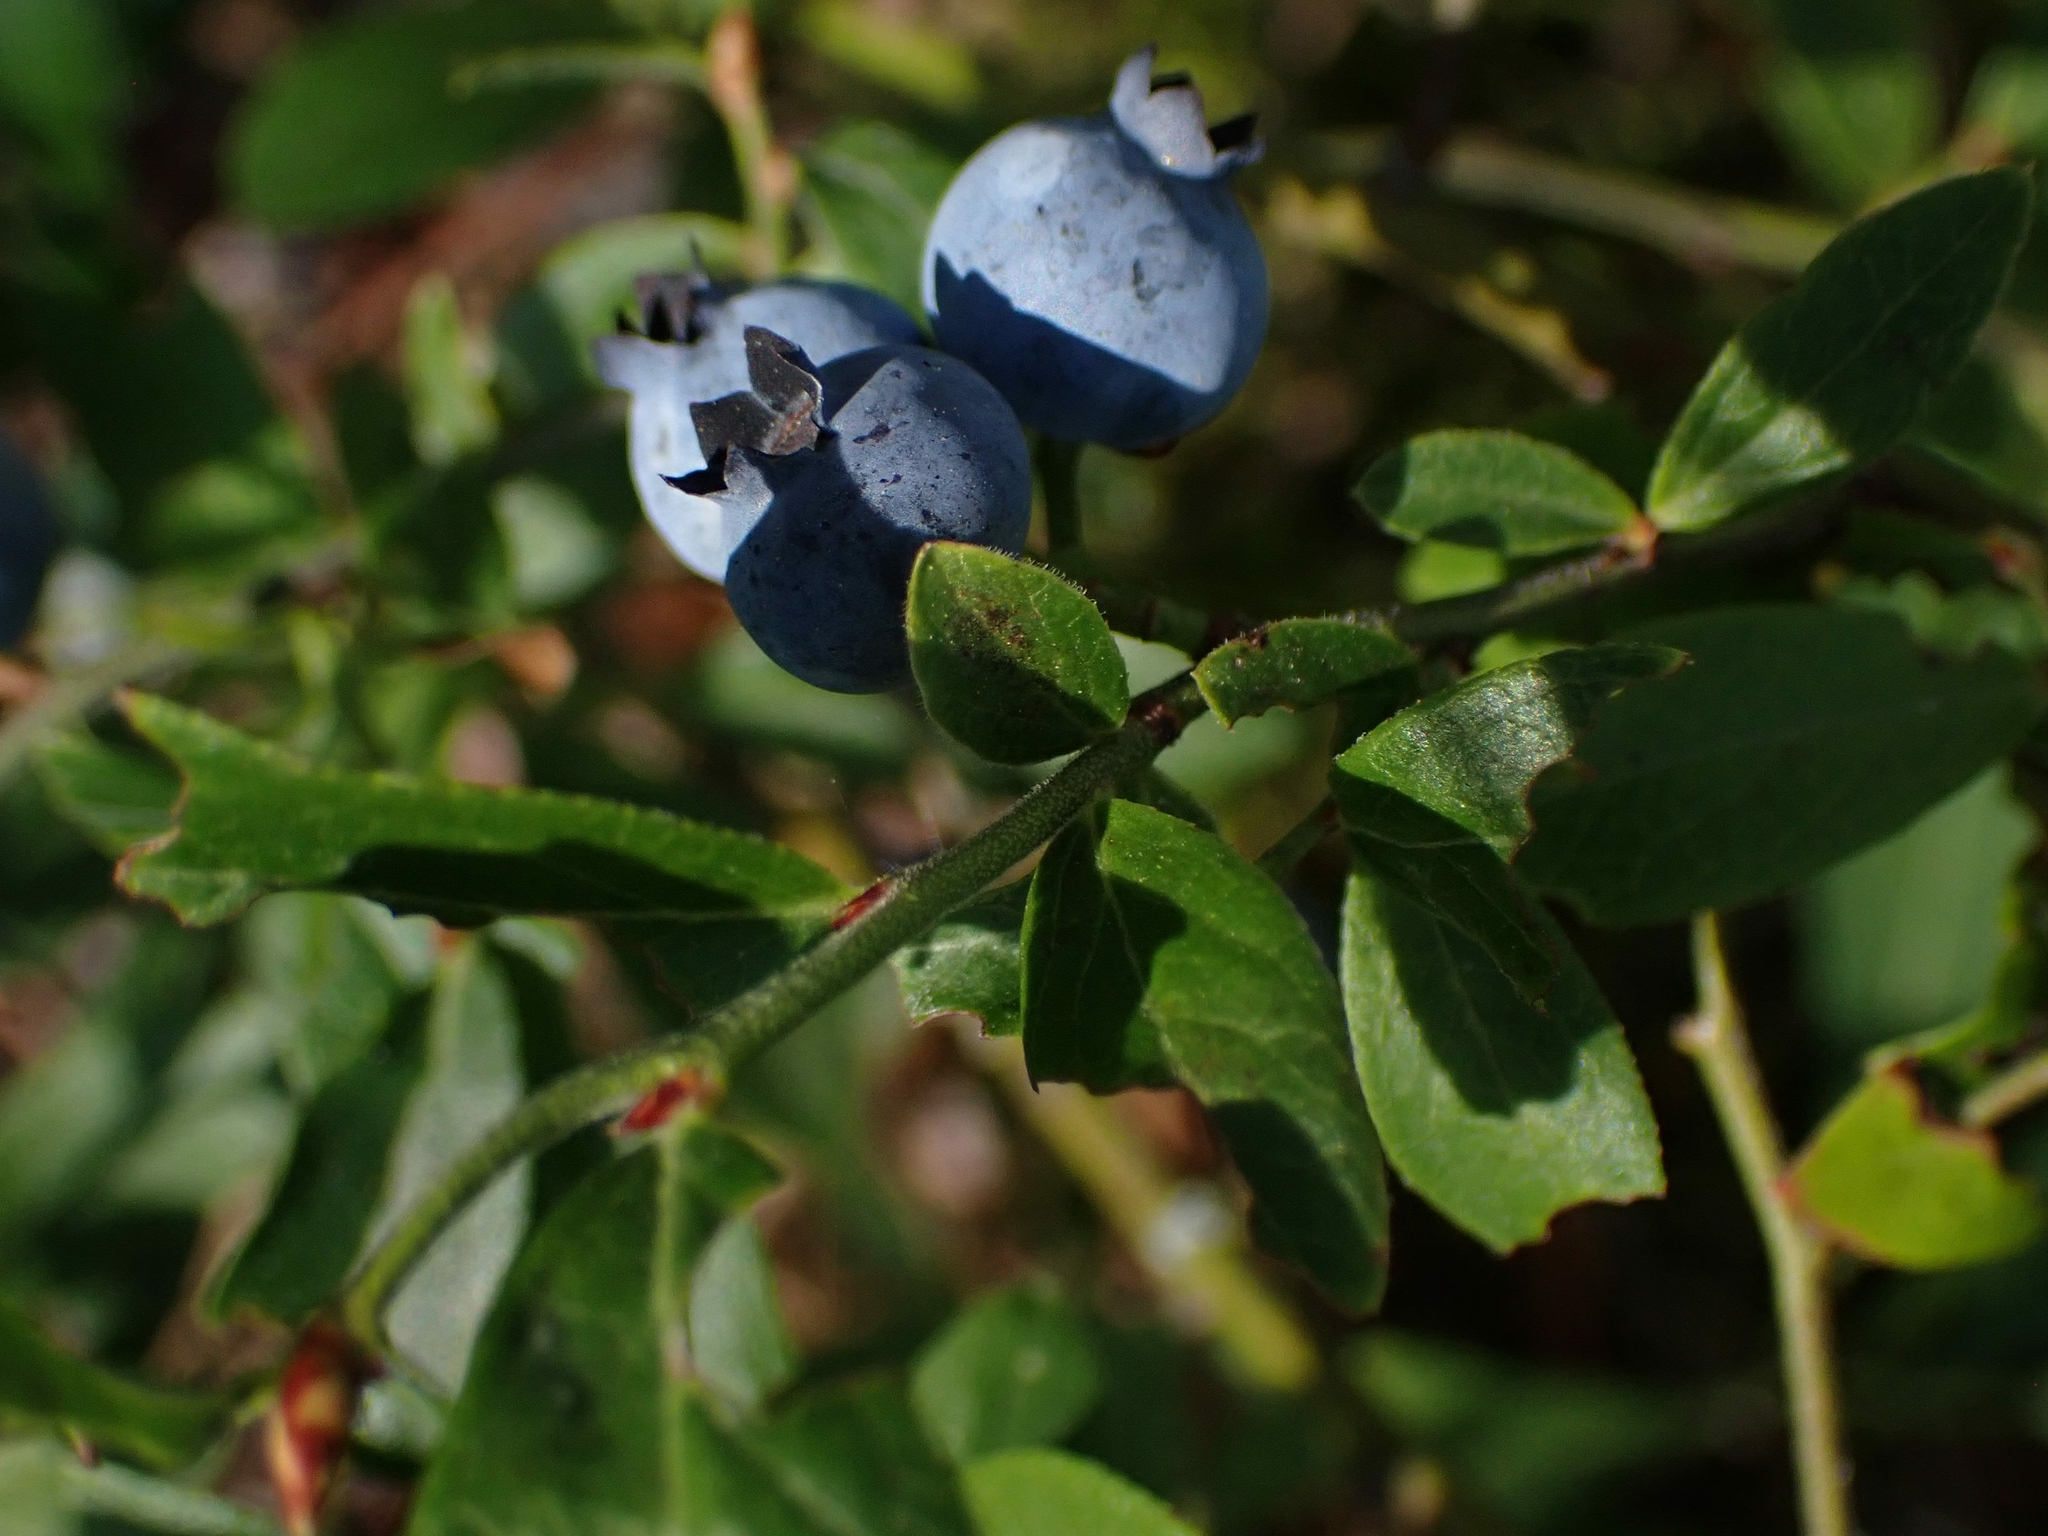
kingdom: Plantae
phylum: Tracheophyta
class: Magnoliopsida
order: Ericales
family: Ericaceae
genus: Vaccinium
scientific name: Vaccinium myrtilloides
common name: Canada blueberry
